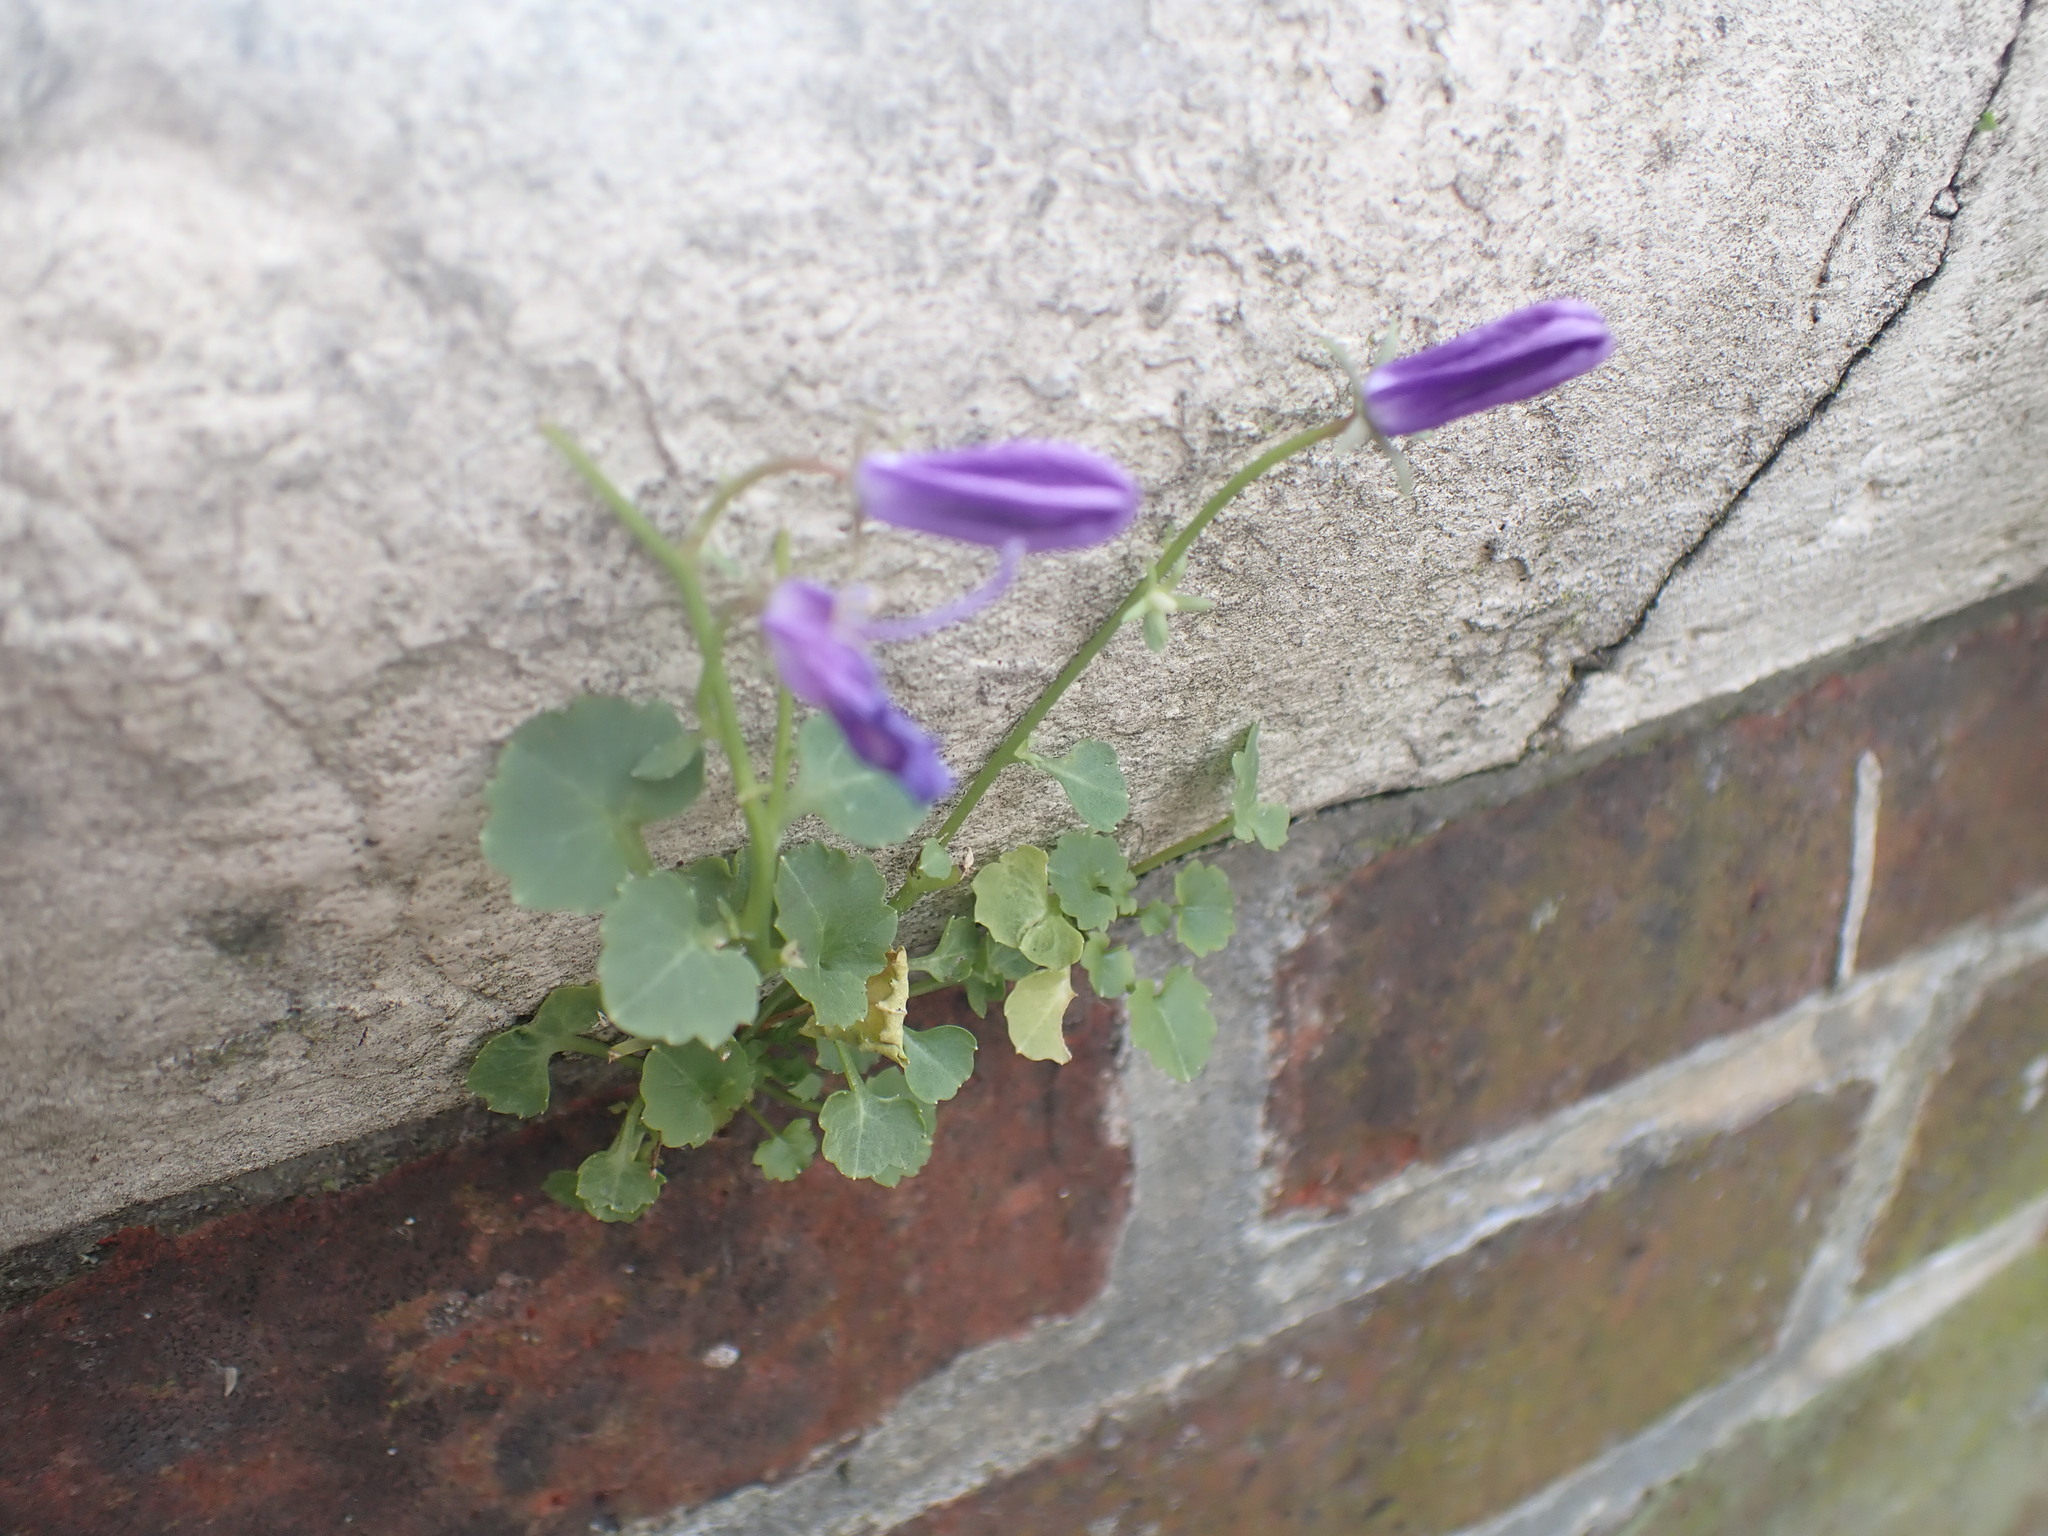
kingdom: Plantae
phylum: Tracheophyta
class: Magnoliopsida
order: Asterales
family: Campanulaceae
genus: Campanula
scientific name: Campanula portenschlagiana
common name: Adria bellflower
